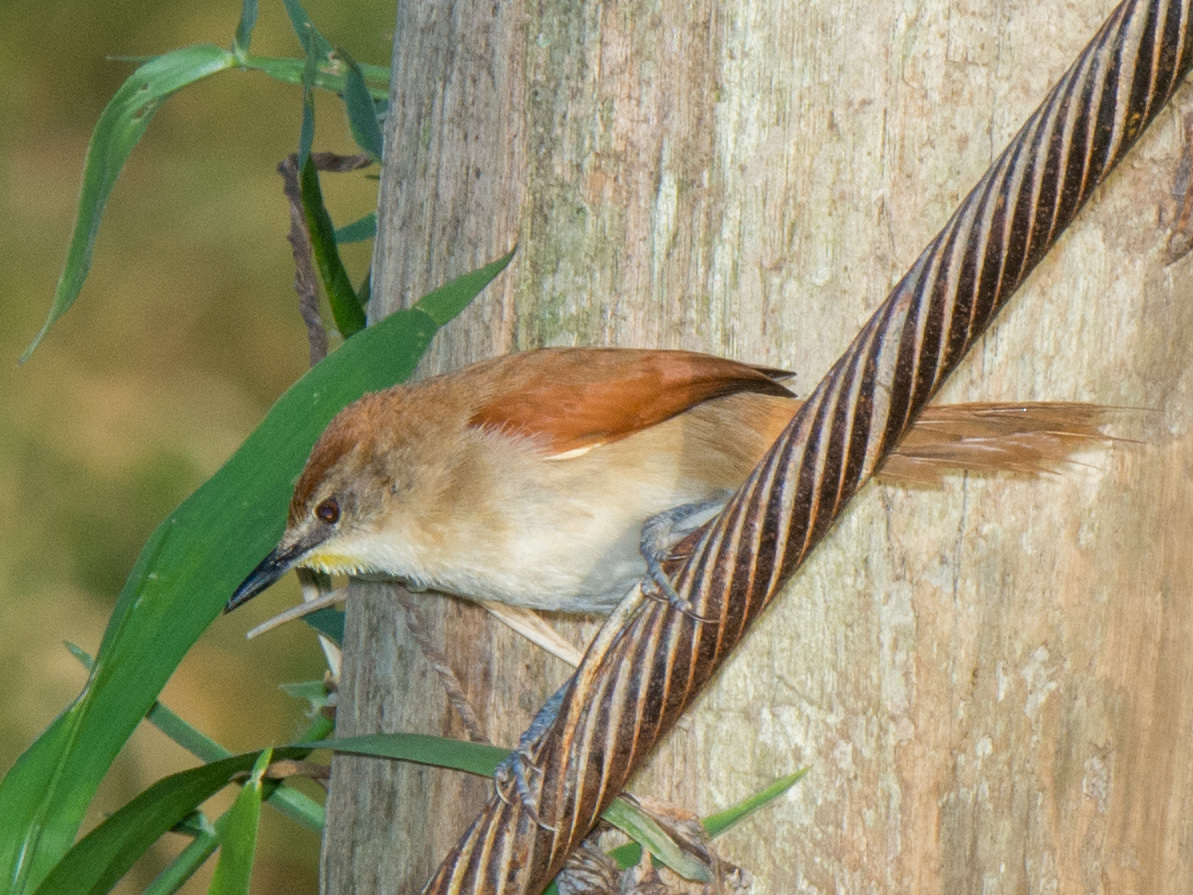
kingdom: Animalia
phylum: Chordata
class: Aves
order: Passeriformes
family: Furnariidae
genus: Certhiaxis
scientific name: Certhiaxis cinnamomeus
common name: Yellow-chinned spinetail
